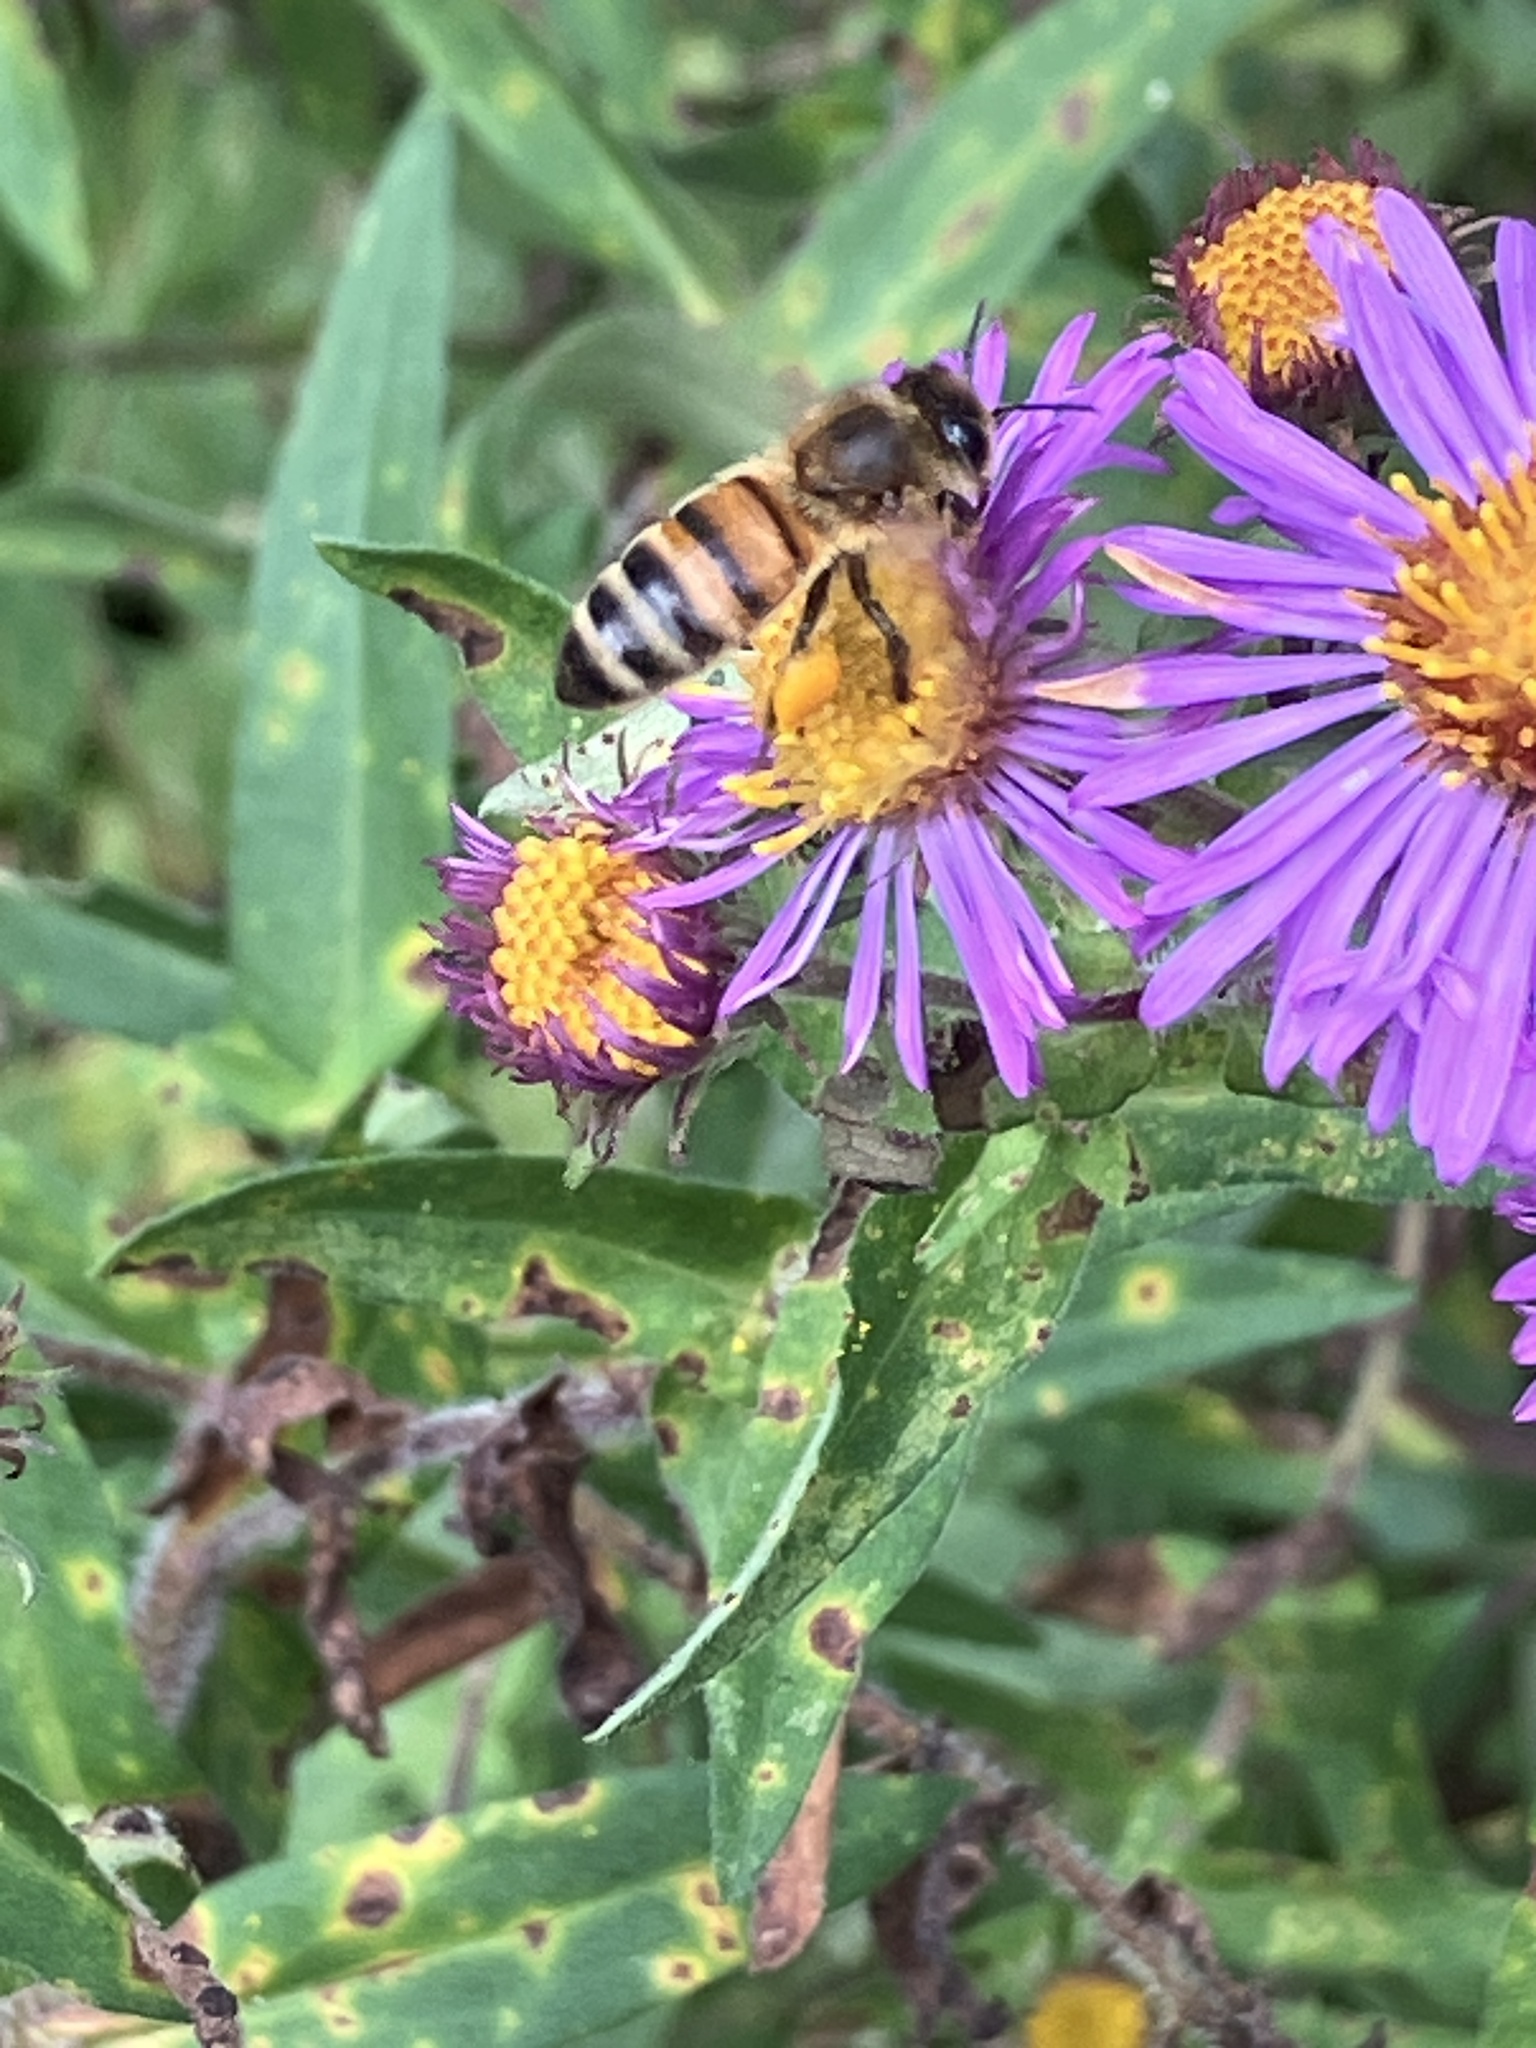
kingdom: Animalia
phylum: Arthropoda
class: Insecta
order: Hymenoptera
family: Apidae
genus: Apis
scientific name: Apis mellifera
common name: Honey bee
